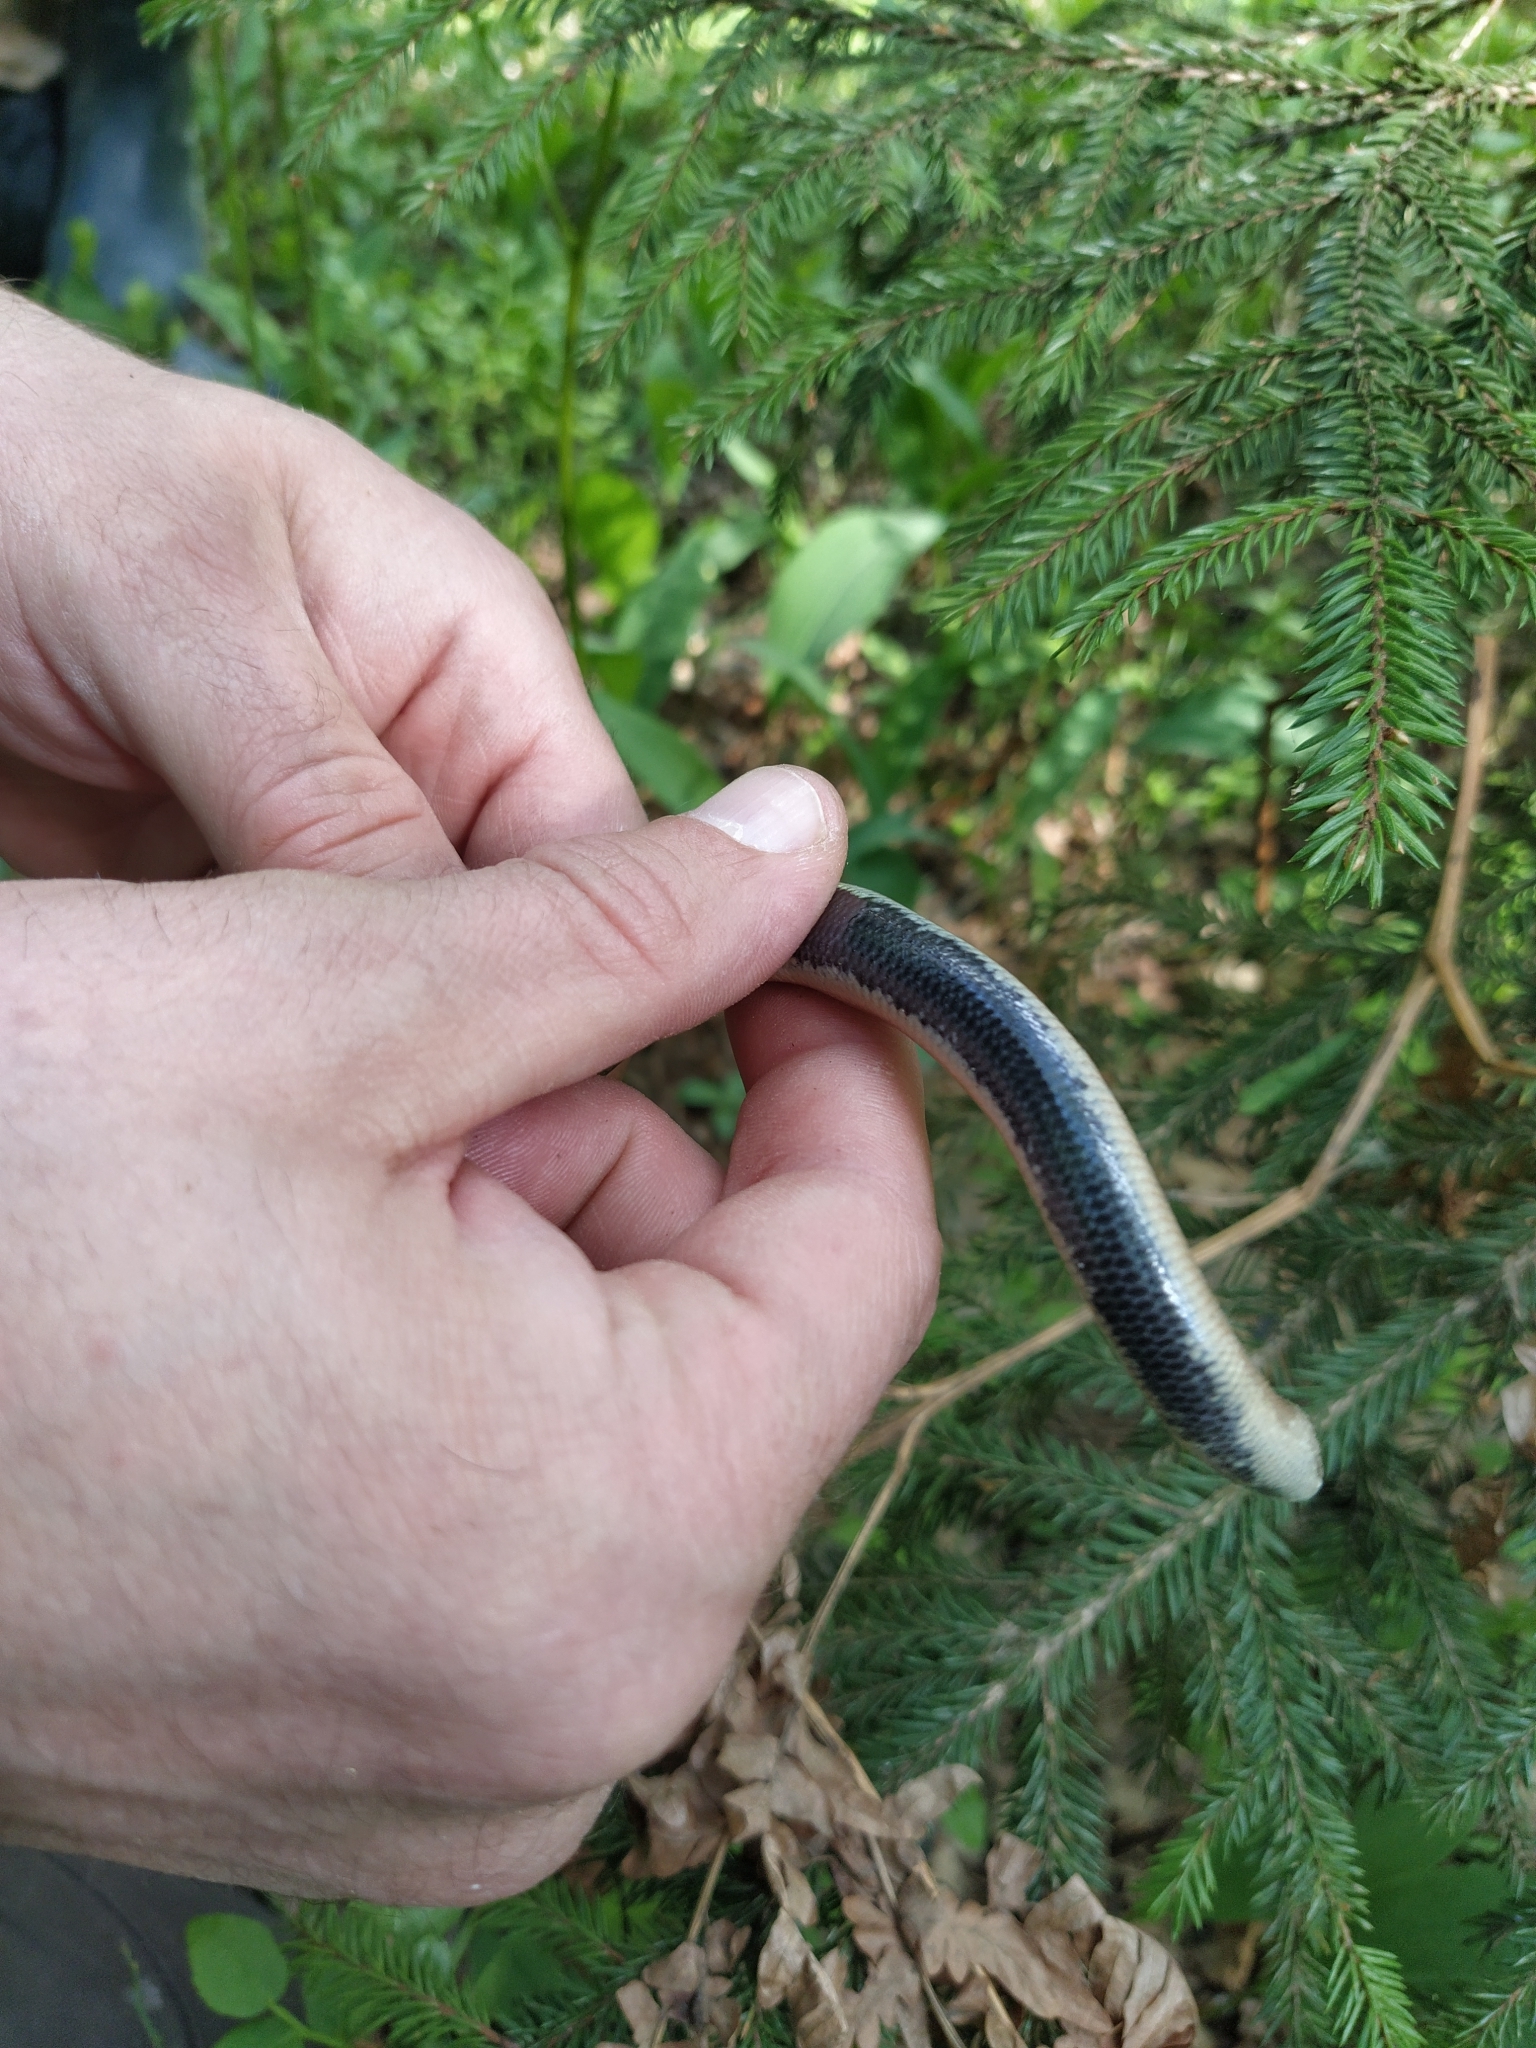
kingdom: Animalia
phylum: Chordata
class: Squamata
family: Anguidae
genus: Anguis
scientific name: Anguis
